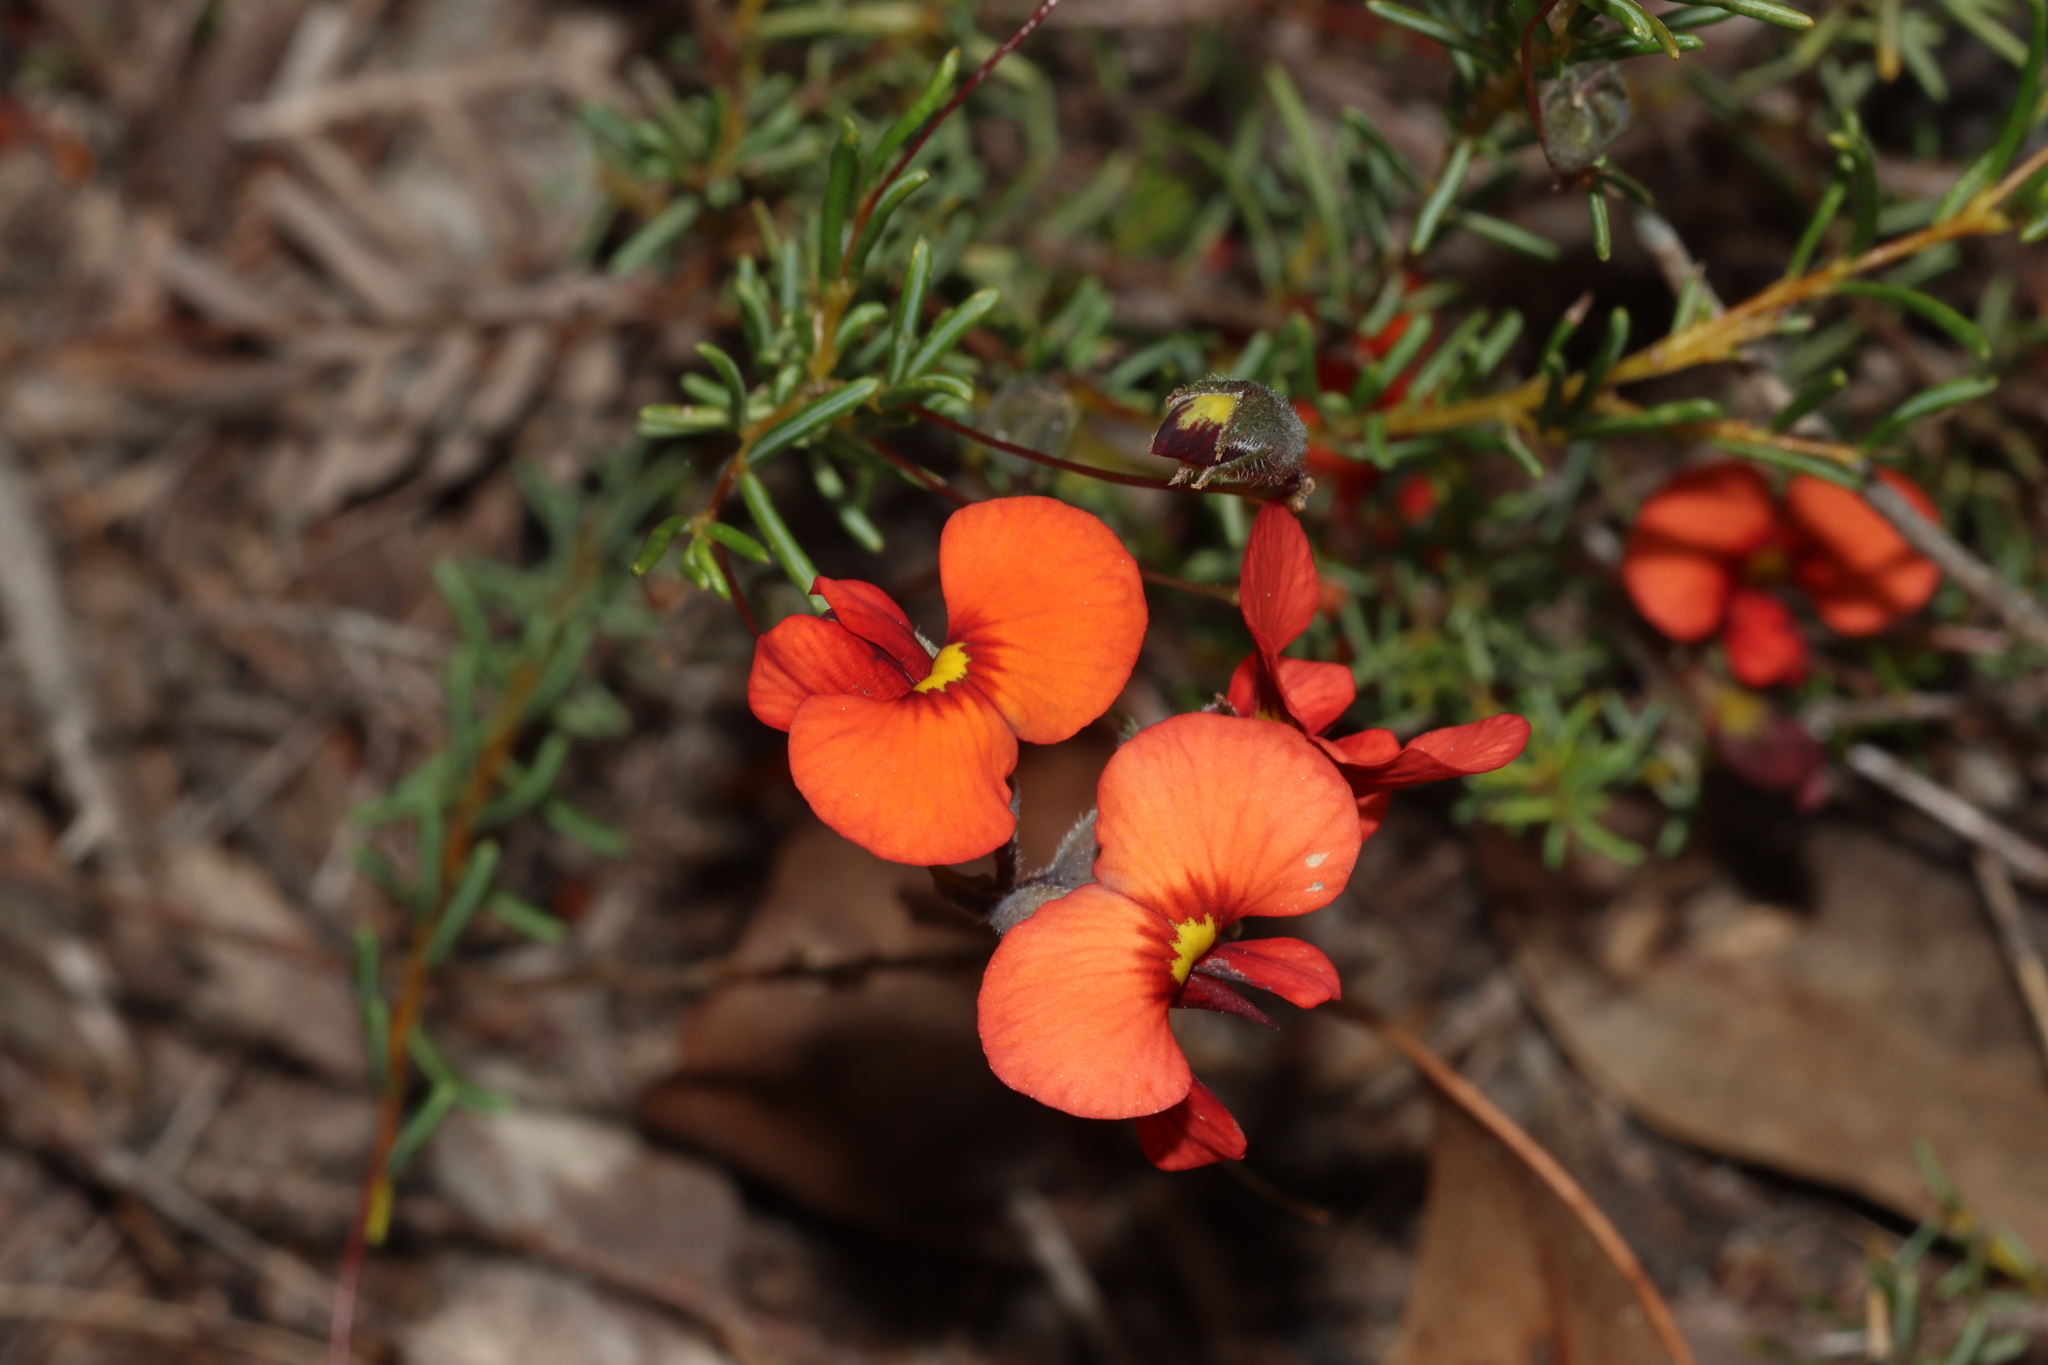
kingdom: Plantae
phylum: Tracheophyta
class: Magnoliopsida
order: Fabales
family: Fabaceae
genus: Dillwynia
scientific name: Dillwynia hispida
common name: Red parrot-pea
